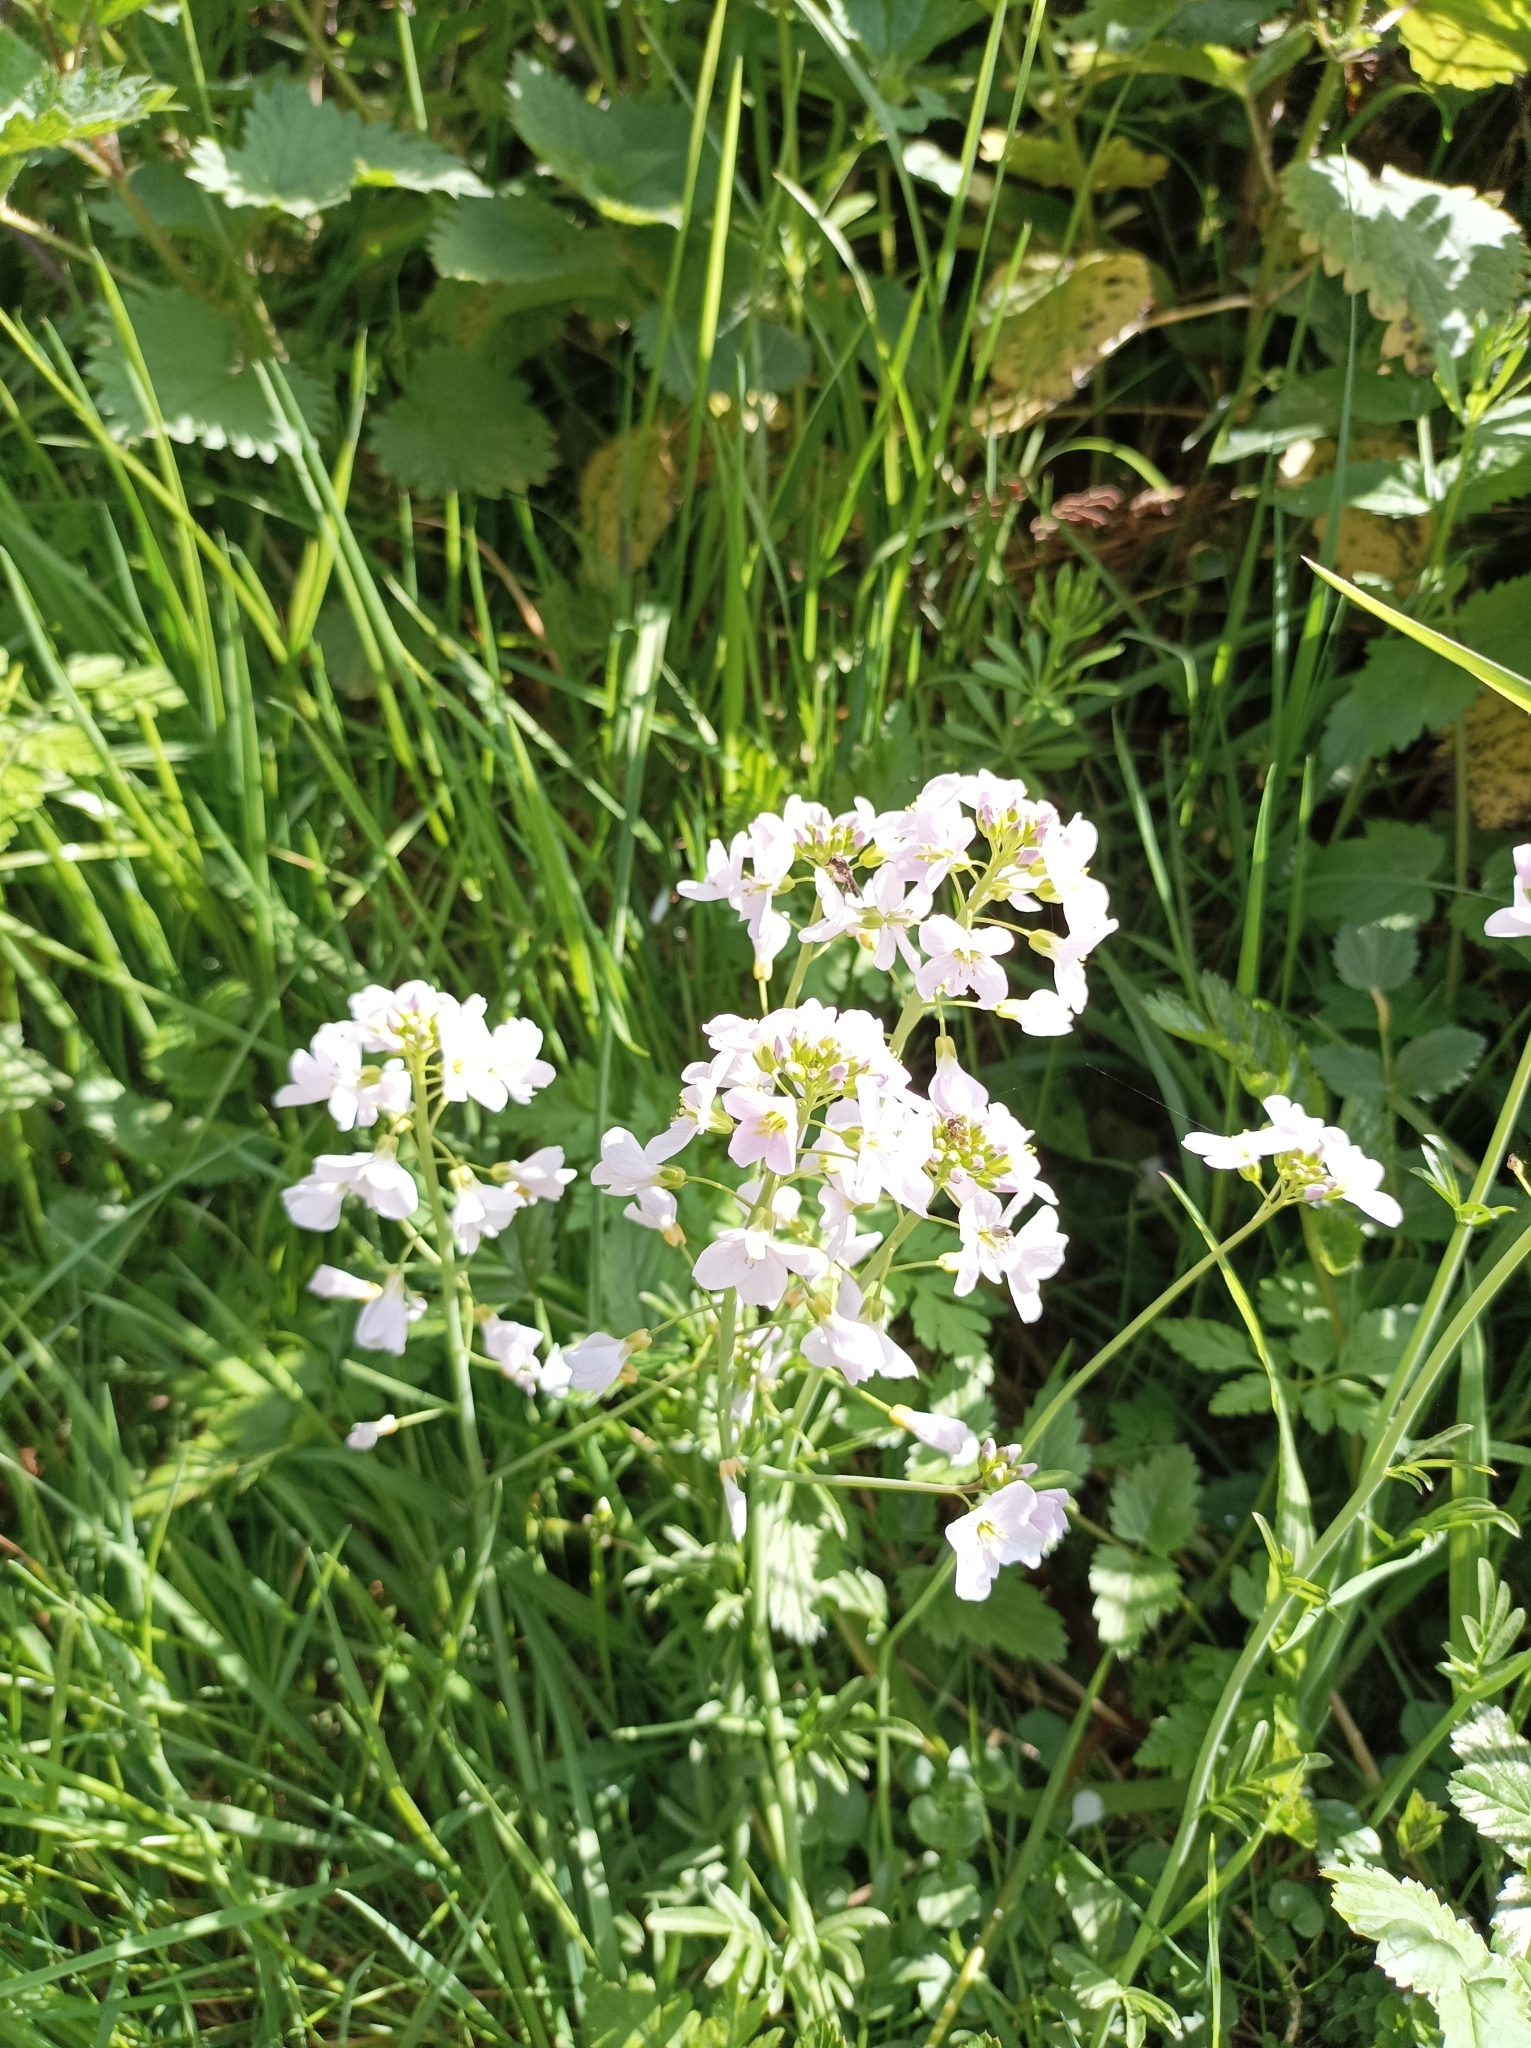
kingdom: Plantae
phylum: Tracheophyta
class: Magnoliopsida
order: Brassicales
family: Brassicaceae
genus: Cardamine
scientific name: Cardamine pratensis
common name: Cuckoo flower
